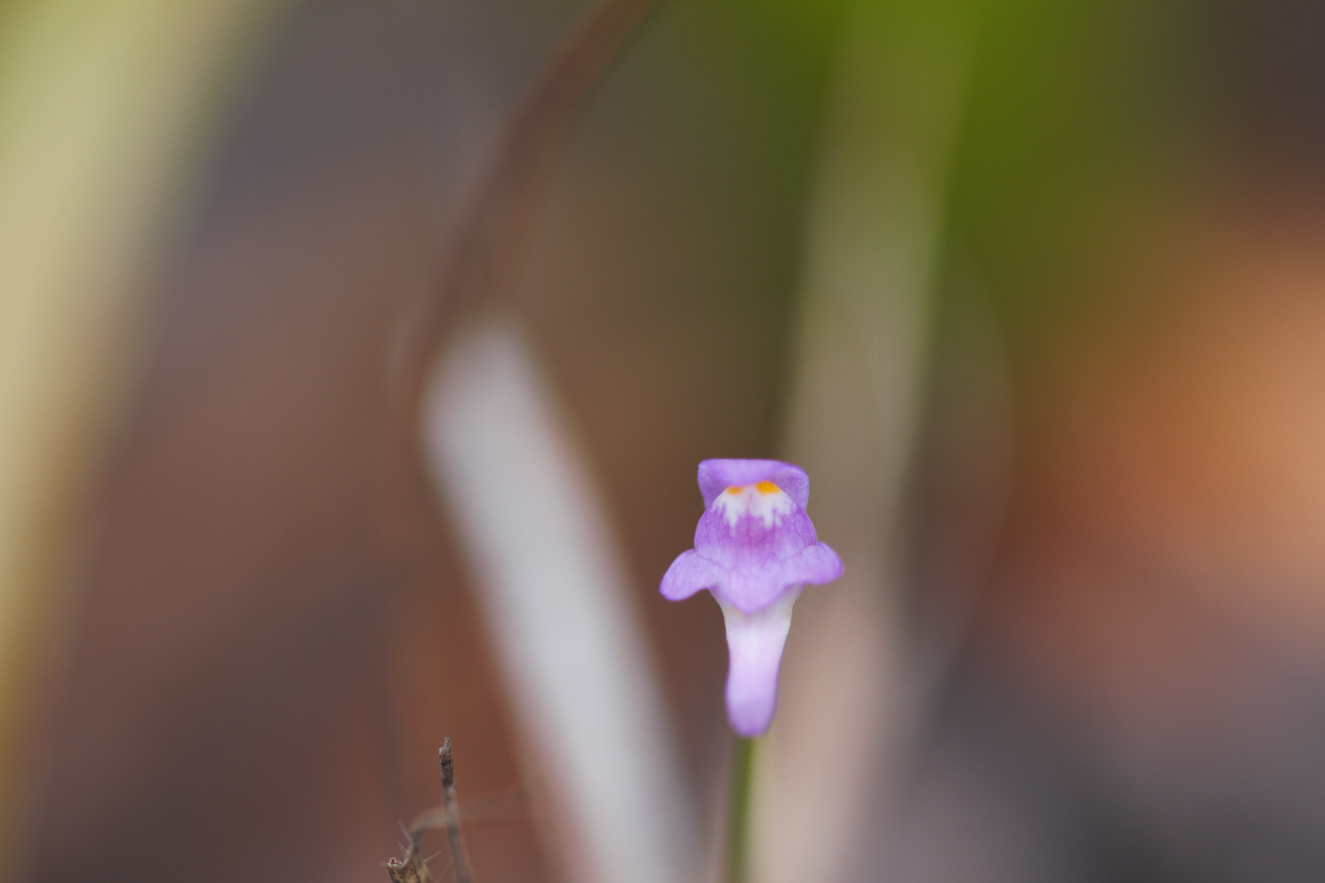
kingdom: Plantae
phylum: Tracheophyta
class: Magnoliopsida
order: Lamiales
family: Lentibulariaceae
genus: Utricularia
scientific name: Utricularia amethystina
